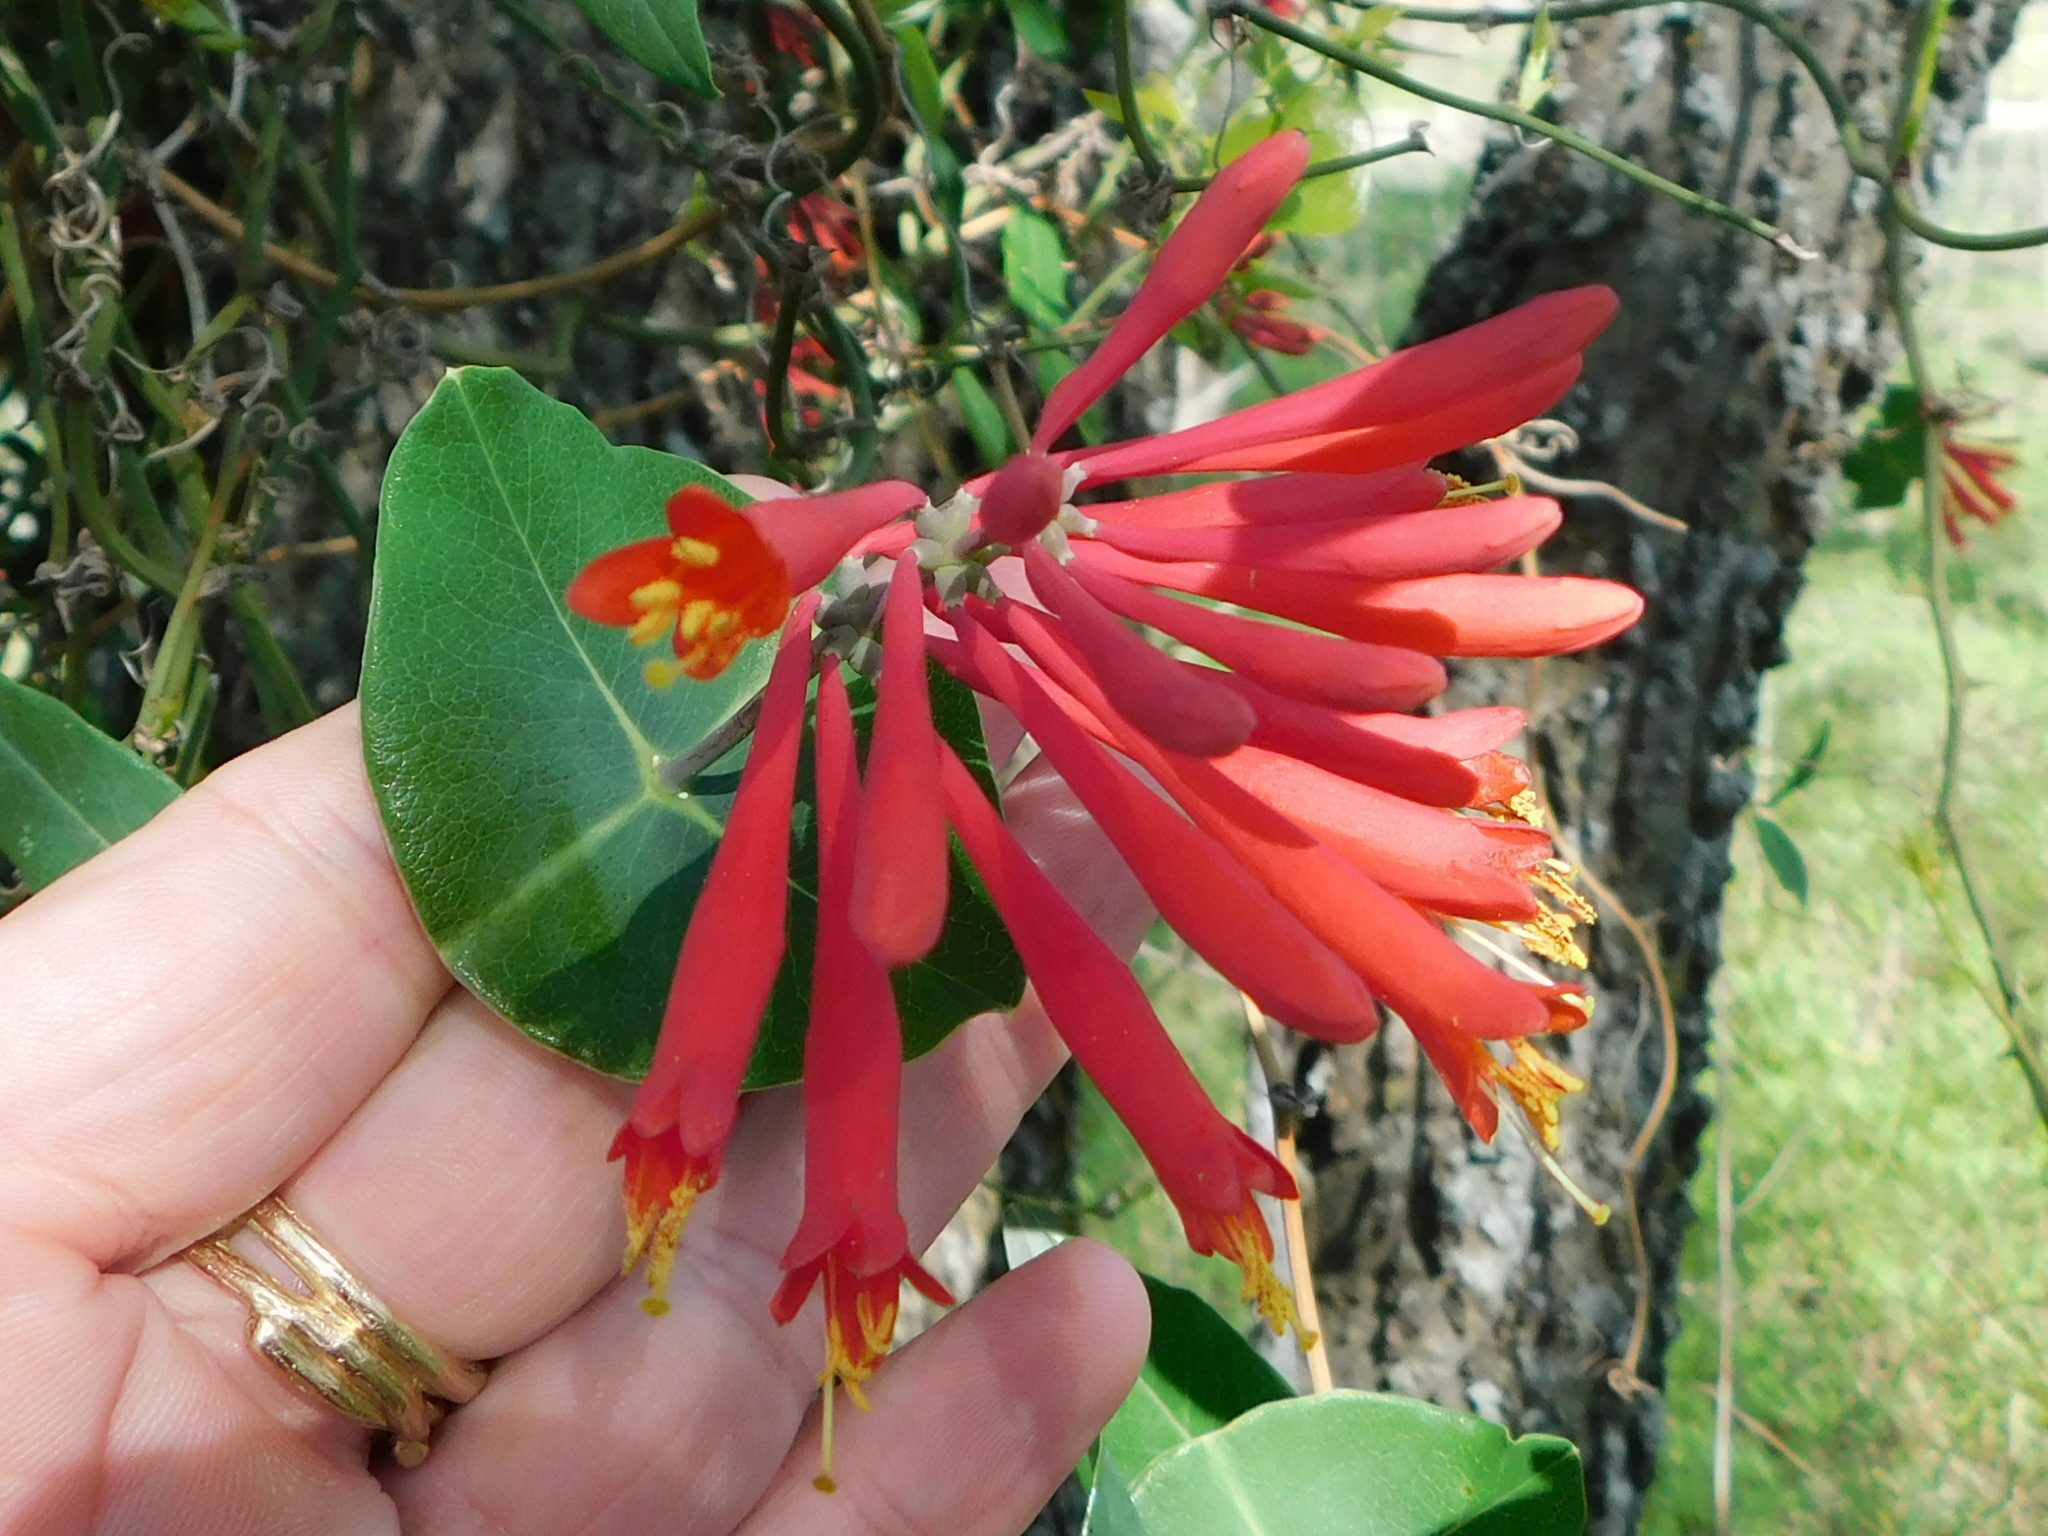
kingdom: Plantae
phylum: Tracheophyta
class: Magnoliopsida
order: Dipsacales
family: Caprifoliaceae
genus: Lonicera
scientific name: Lonicera sempervirens
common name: Coral honeysuckle
